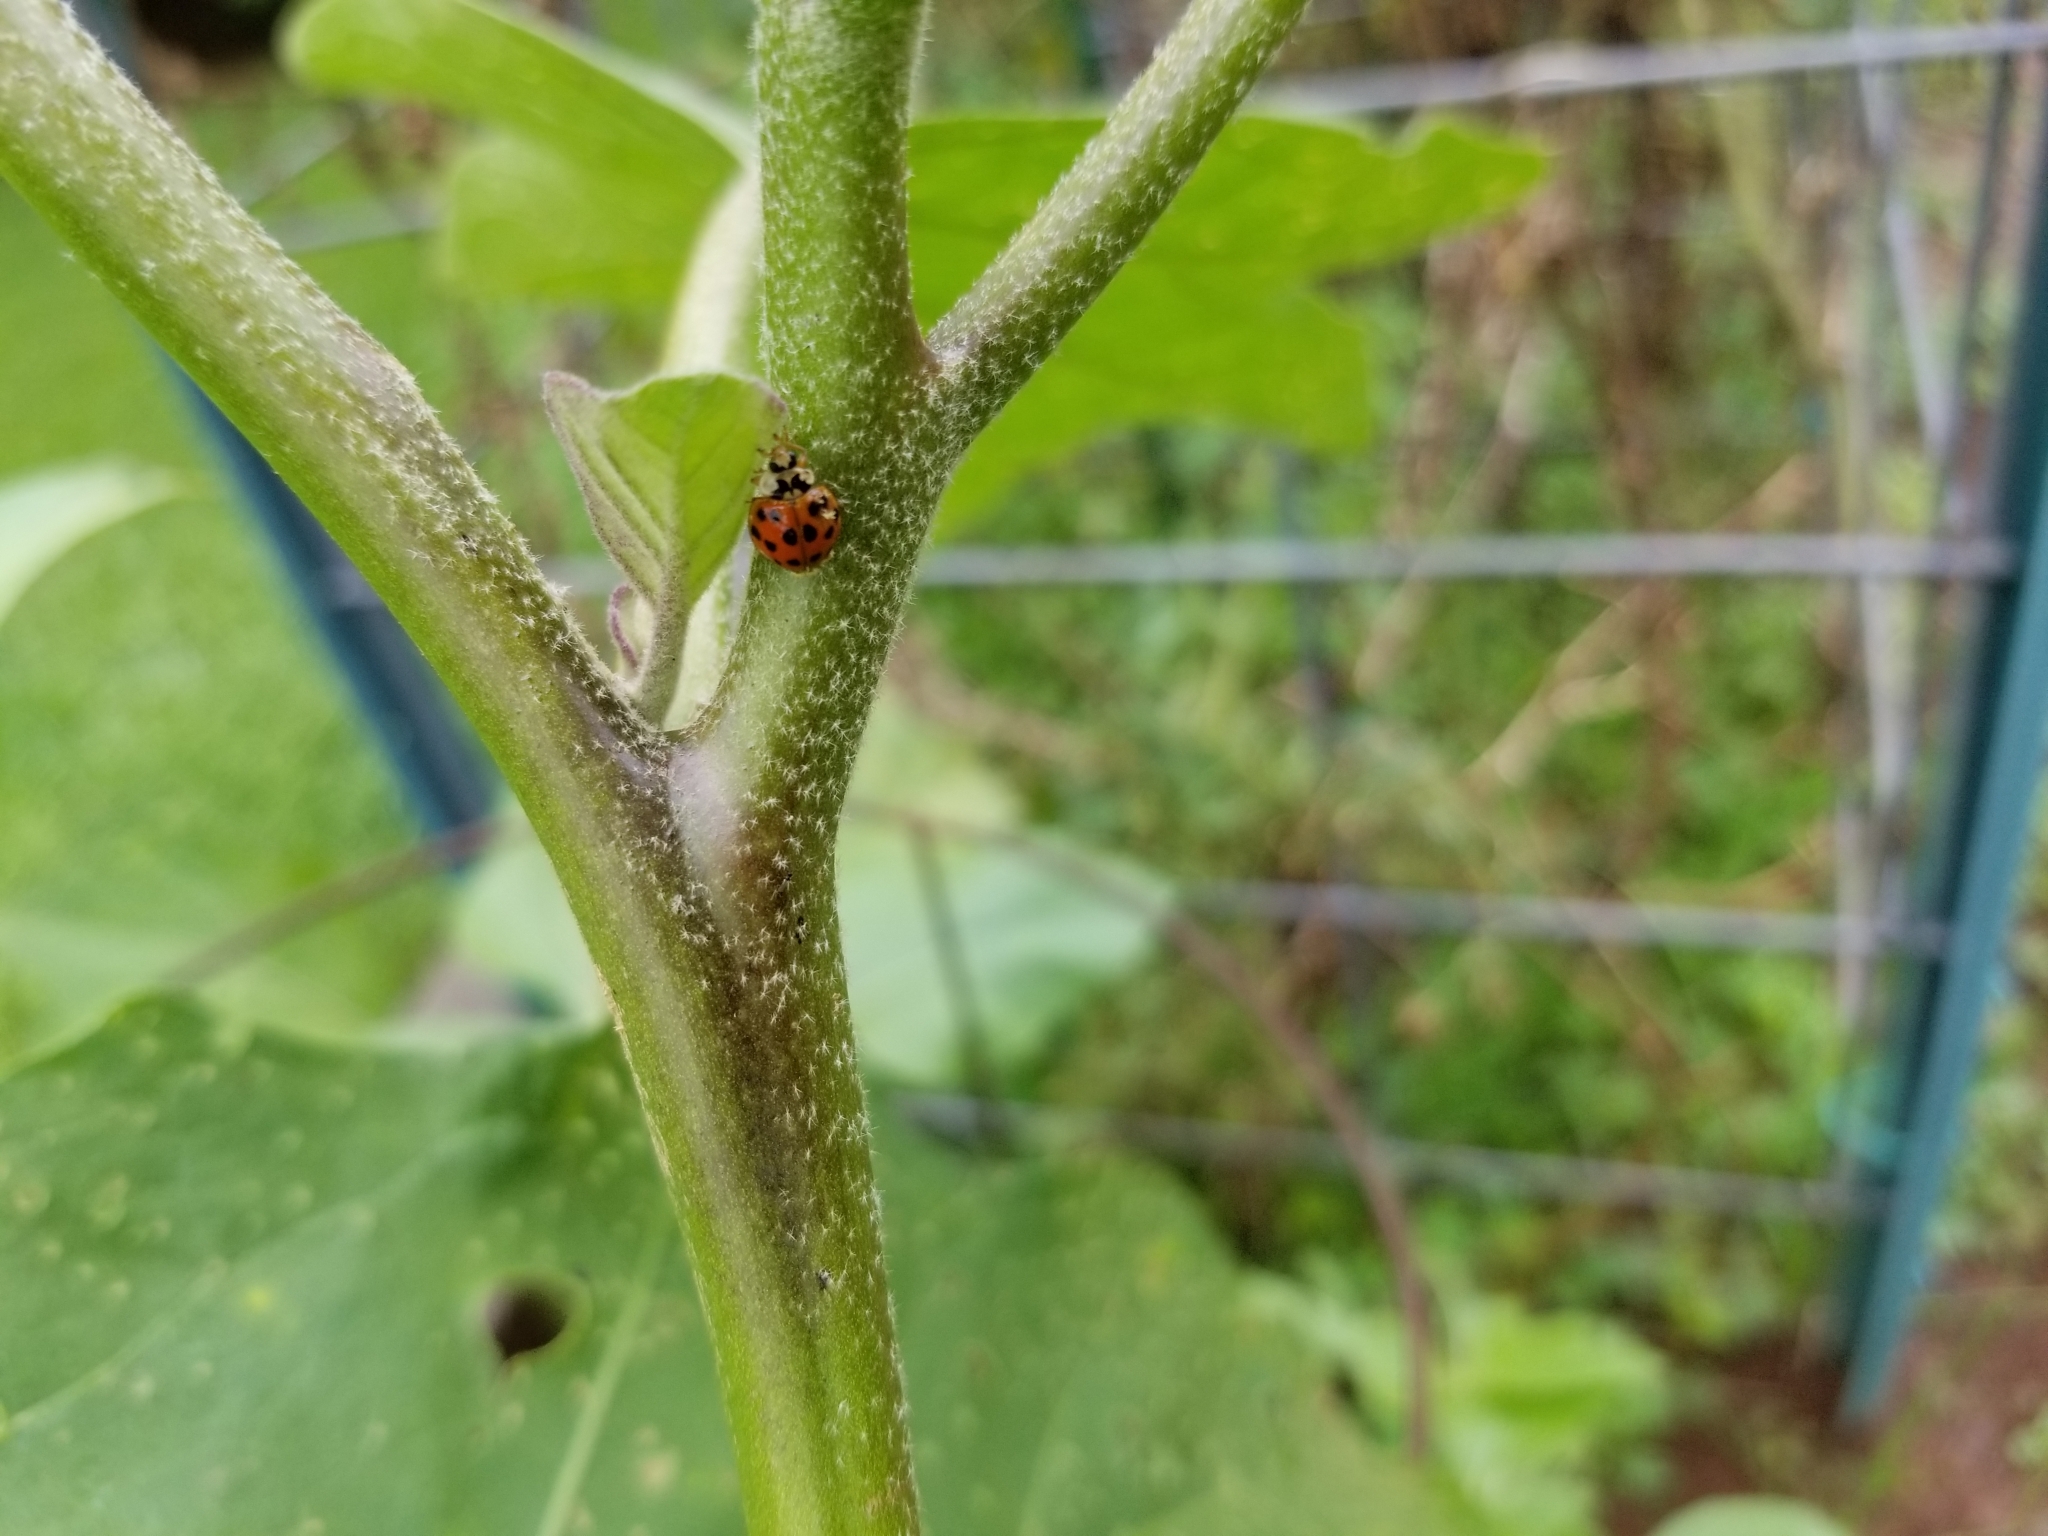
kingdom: Animalia
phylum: Arthropoda
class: Insecta
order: Coleoptera
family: Coccinellidae
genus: Harmonia
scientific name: Harmonia axyridis
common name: Harlequin ladybird
